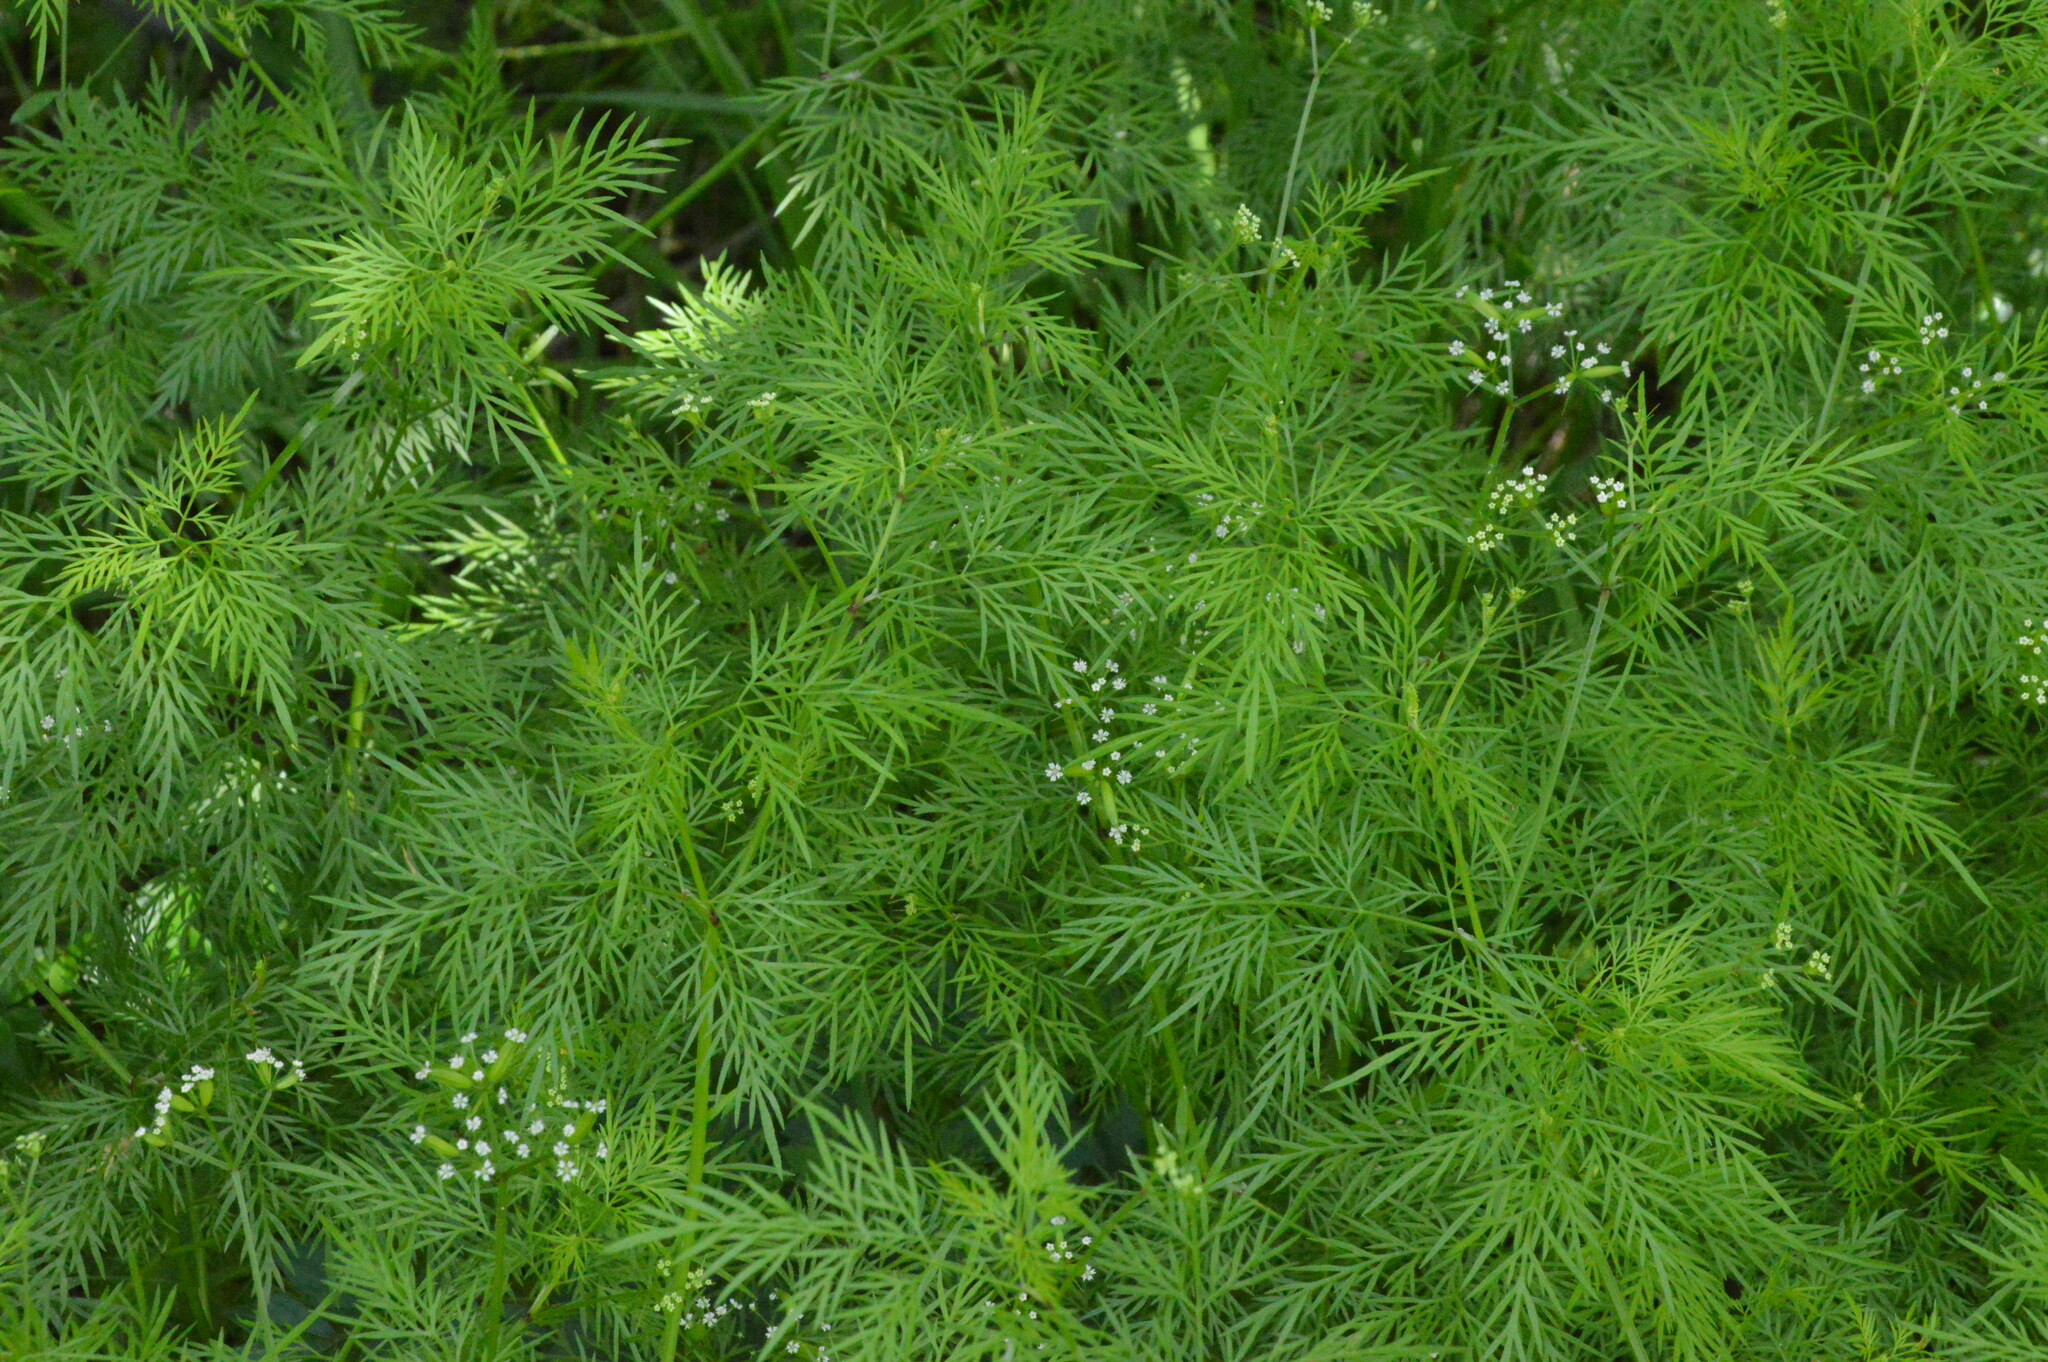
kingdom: Plantae
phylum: Tracheophyta
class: Magnoliopsida
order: Apiales
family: Apiaceae
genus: Trepocarpus
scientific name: Trepocarpus aethusae
